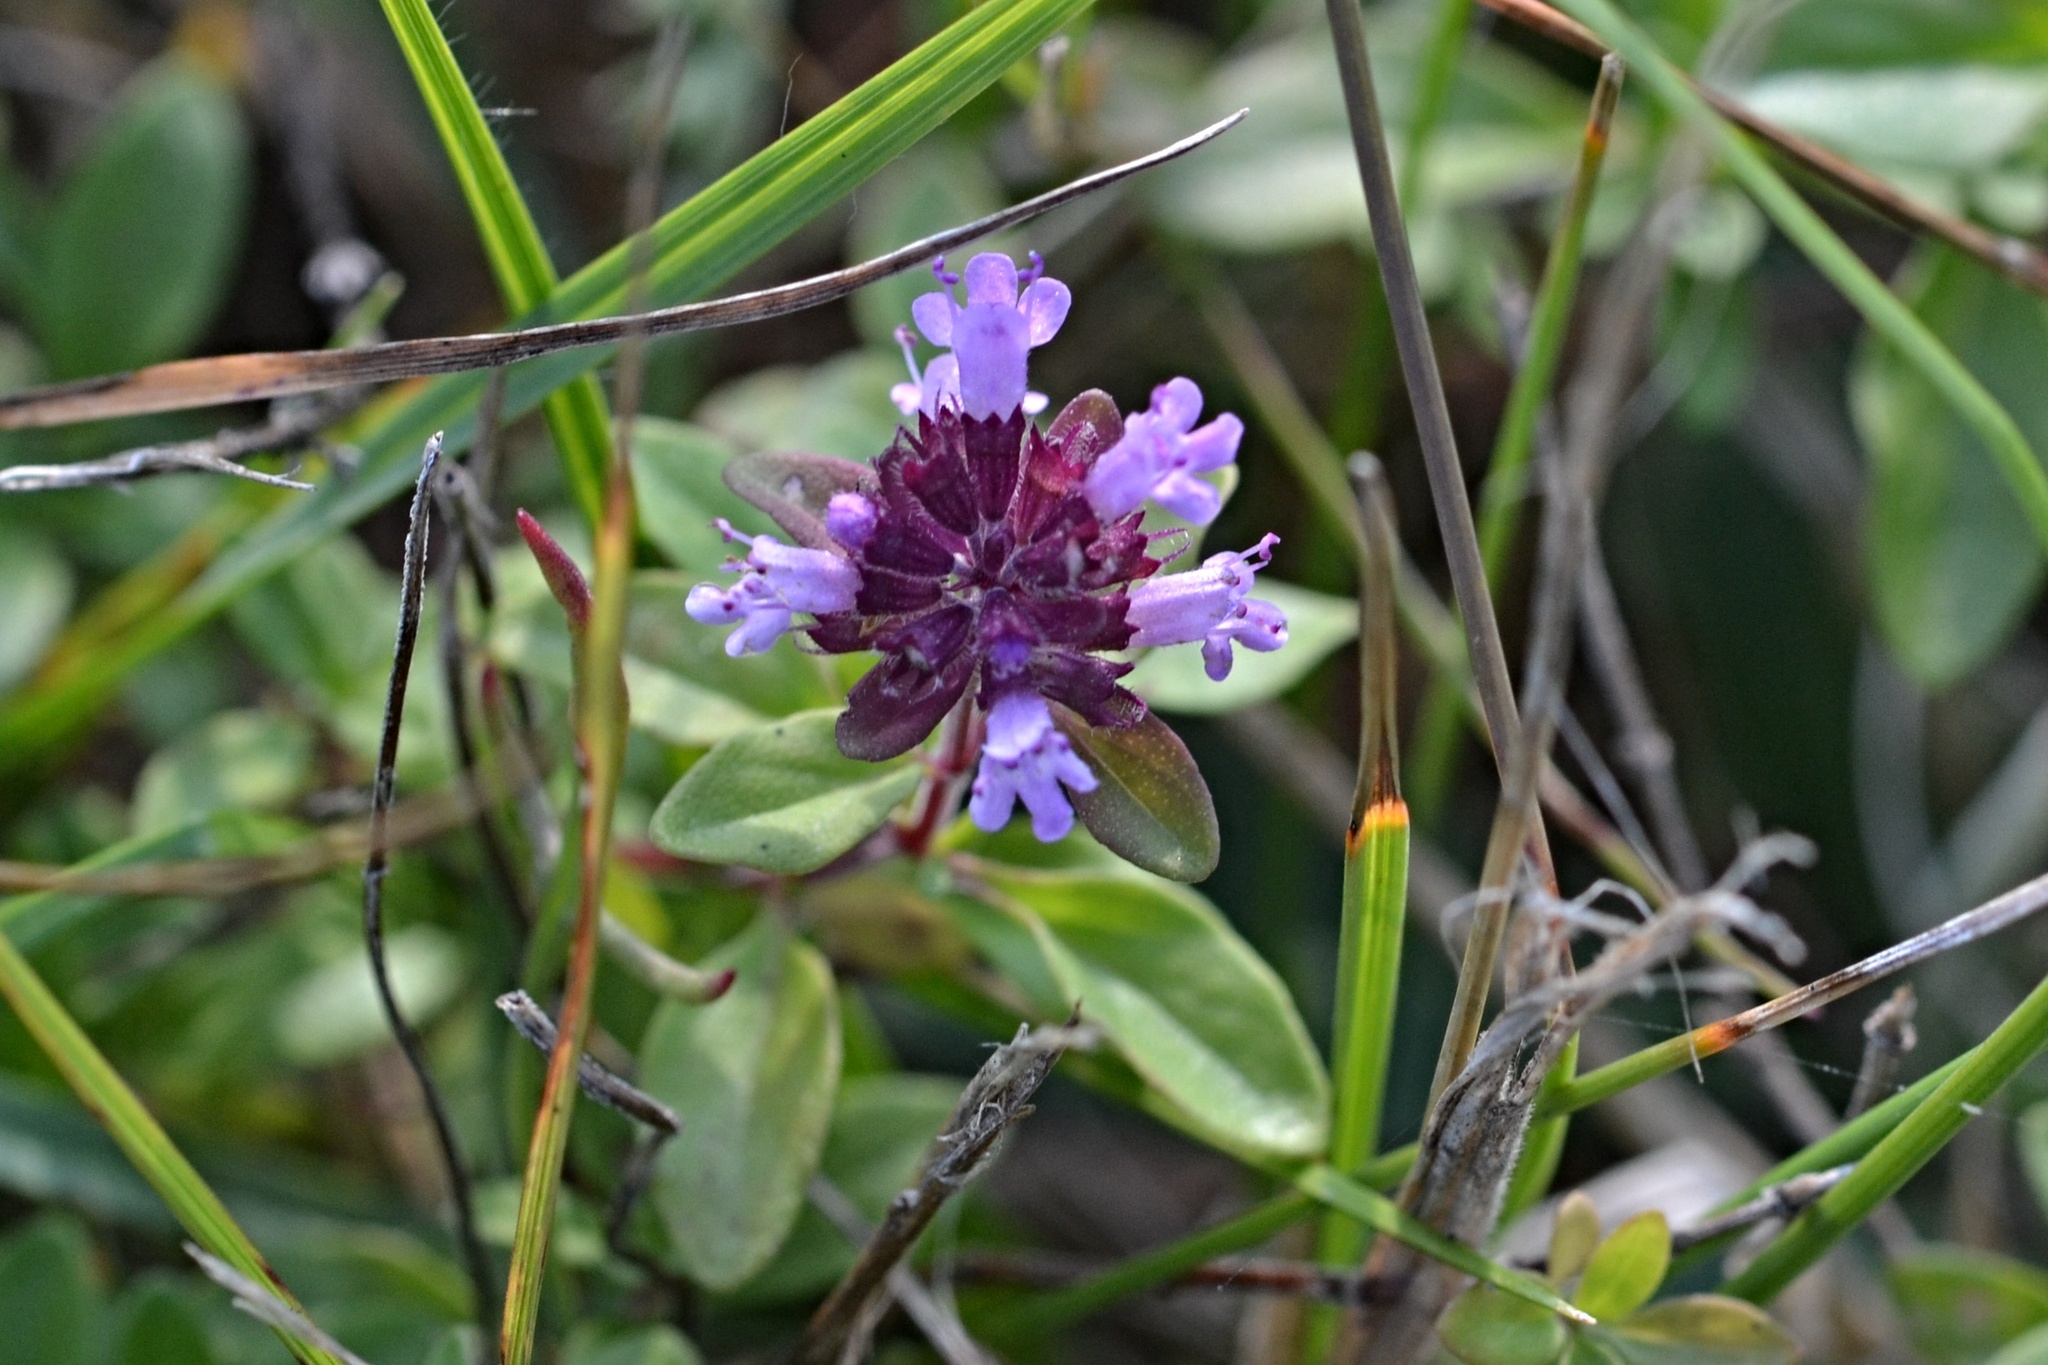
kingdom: Plantae
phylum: Tracheophyta
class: Magnoliopsida
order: Lamiales
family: Lamiaceae
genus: Thymus
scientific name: Thymus pulegioides
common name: Large thyme
